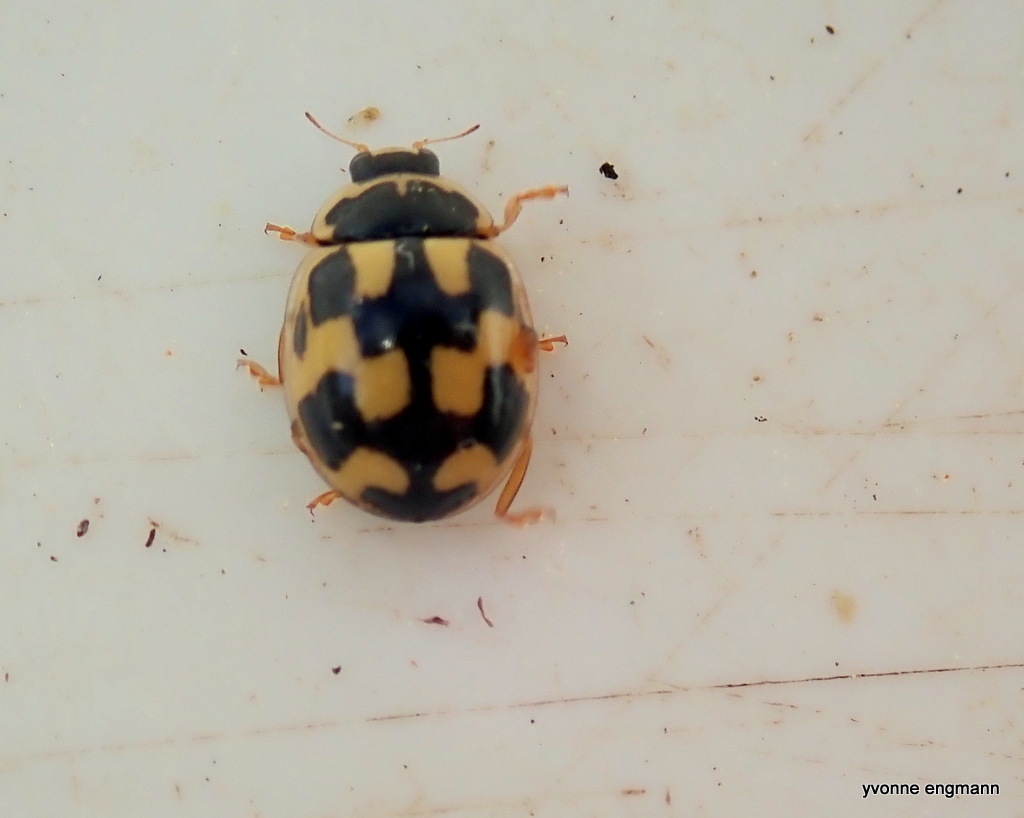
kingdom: Animalia
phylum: Arthropoda
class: Insecta
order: Coleoptera
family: Coccinellidae
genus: Propylaea
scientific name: Propylaea quatuordecimpunctata
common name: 14-spotted ladybird beetle
